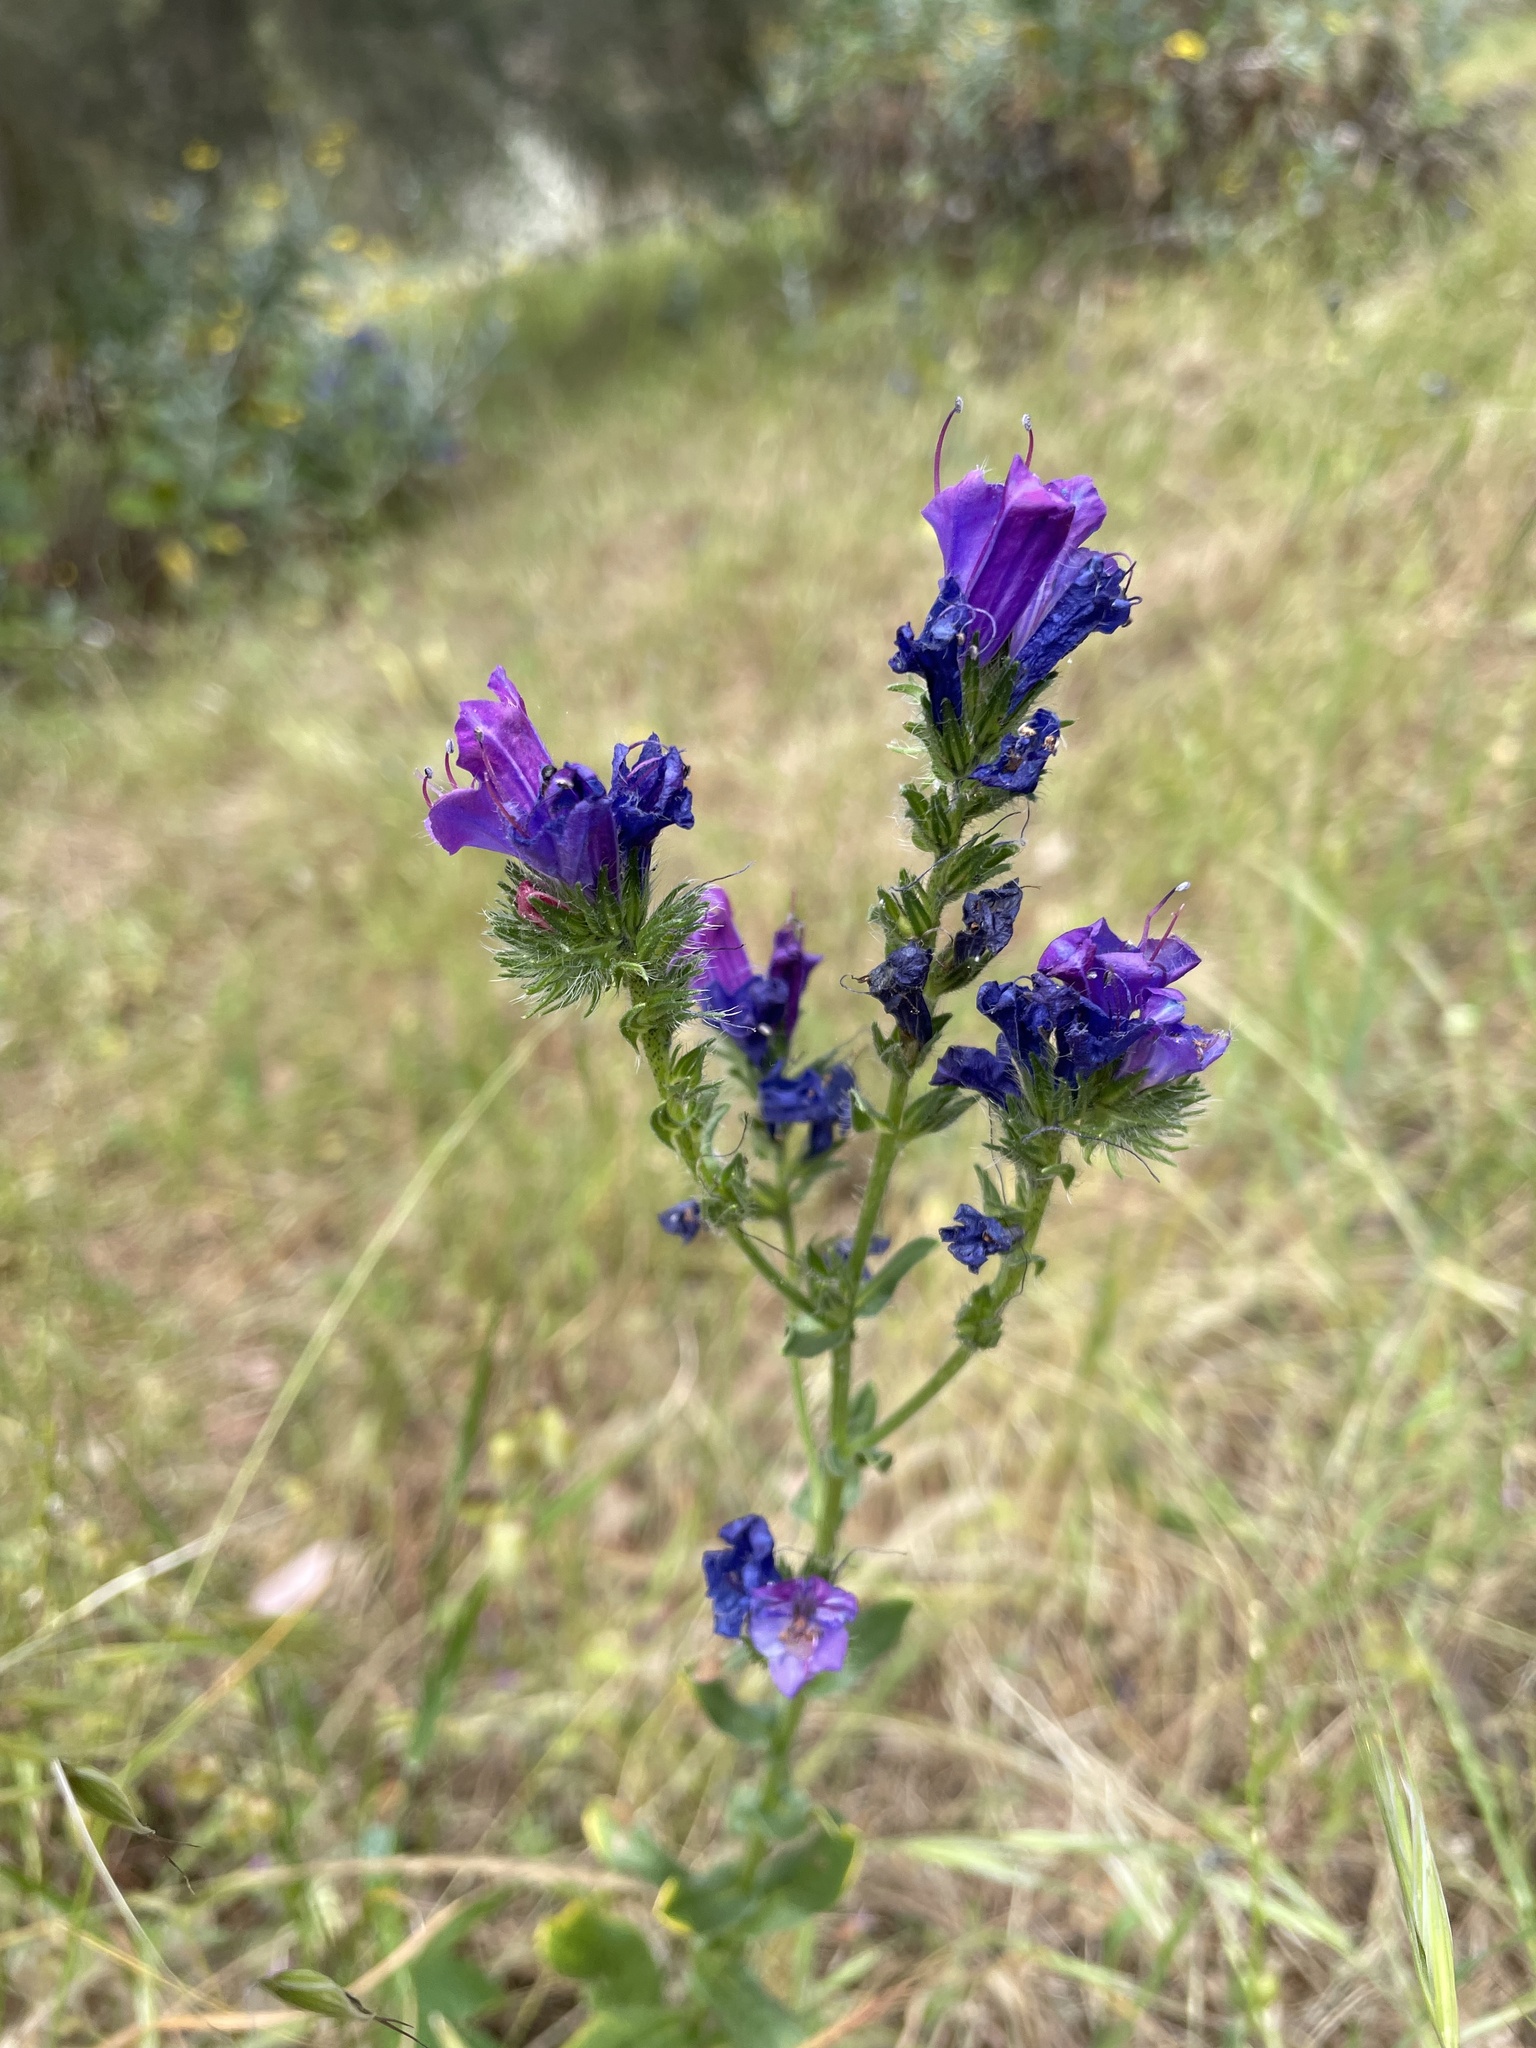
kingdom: Plantae
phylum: Tracheophyta
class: Magnoliopsida
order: Boraginales
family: Boraginaceae
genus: Echium
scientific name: Echium plantagineum
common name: Purple viper's-bugloss
